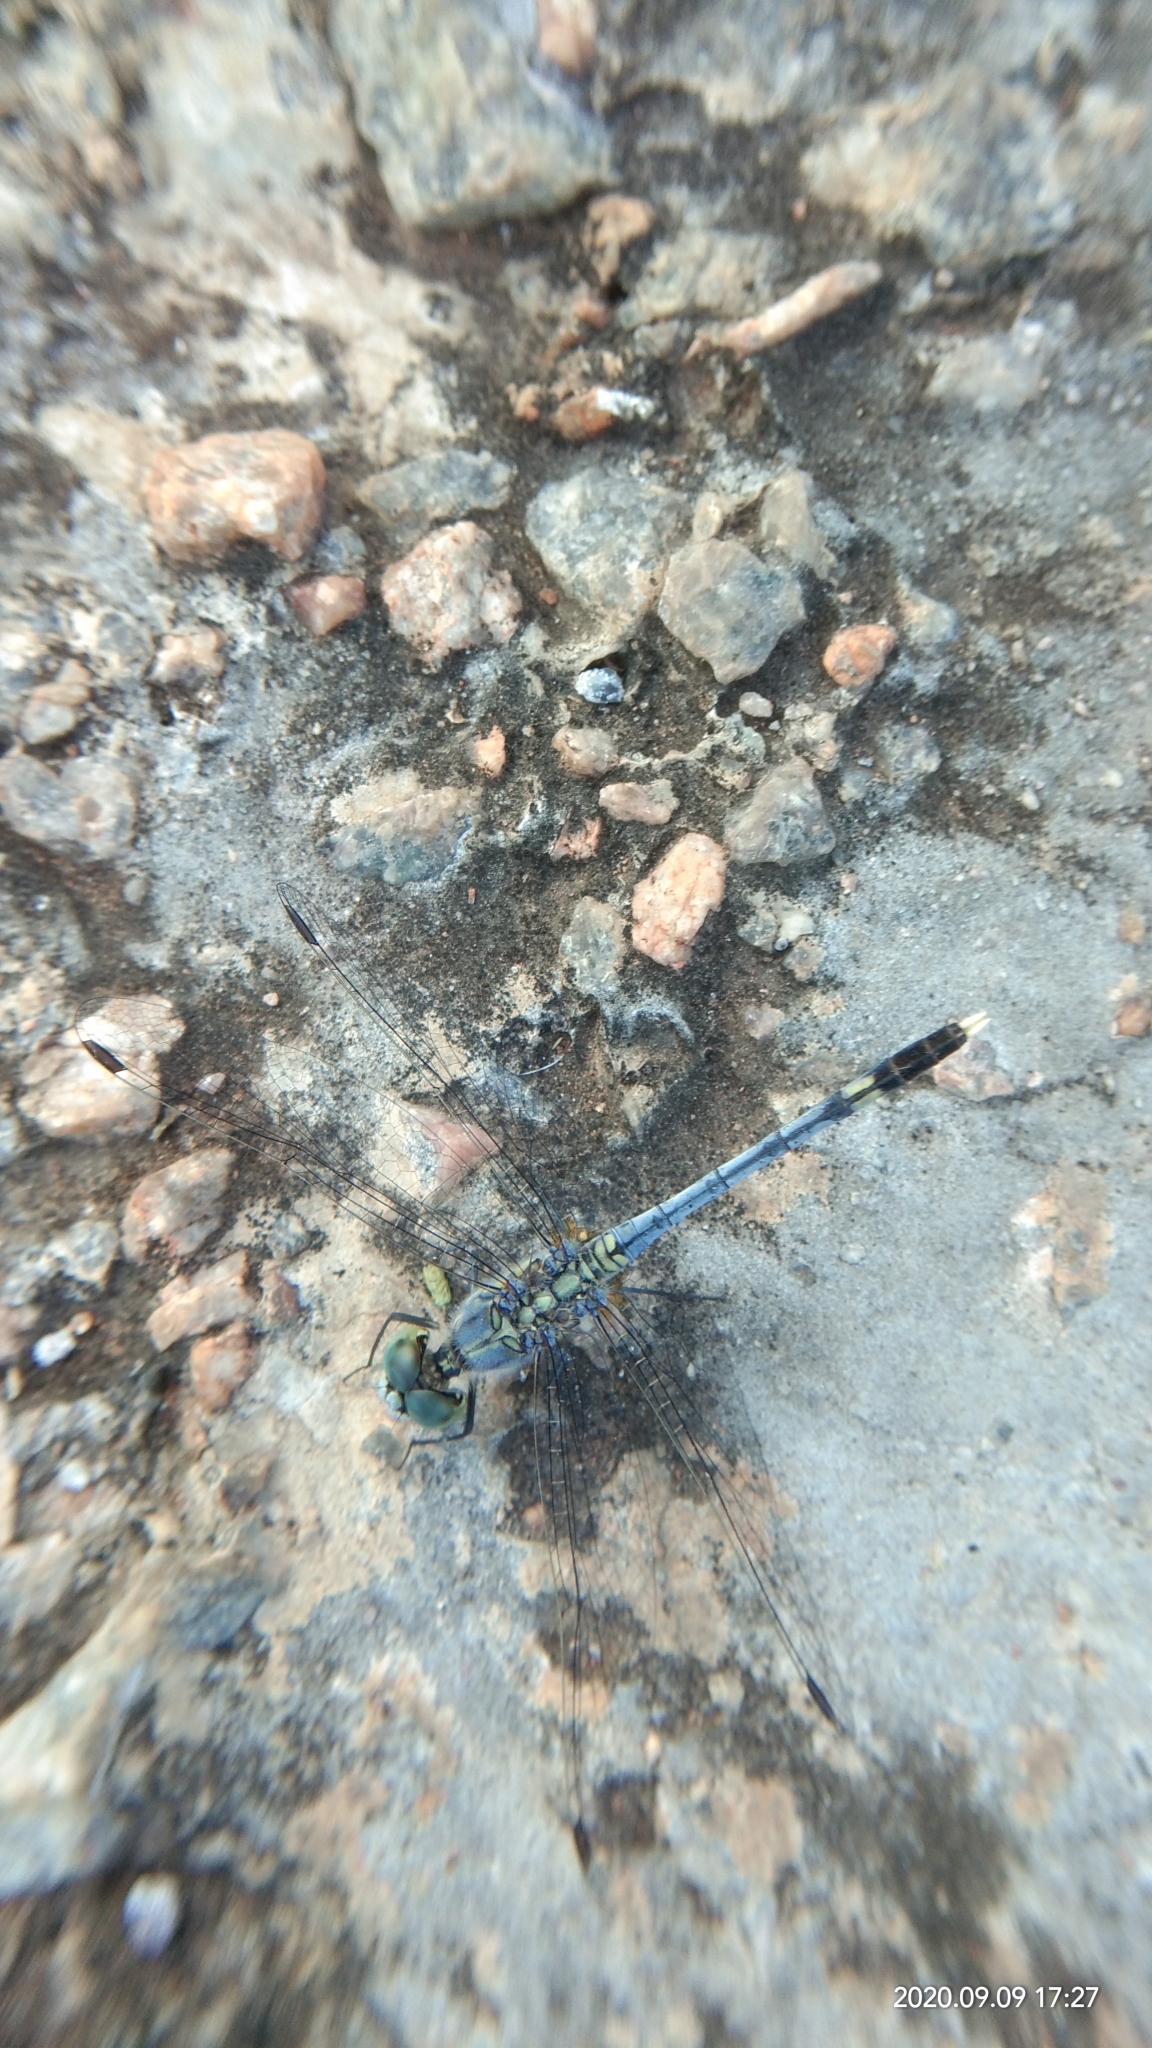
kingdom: Animalia
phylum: Arthropoda
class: Insecta
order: Odonata
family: Libellulidae
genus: Diplacodes
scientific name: Diplacodes trivialis
